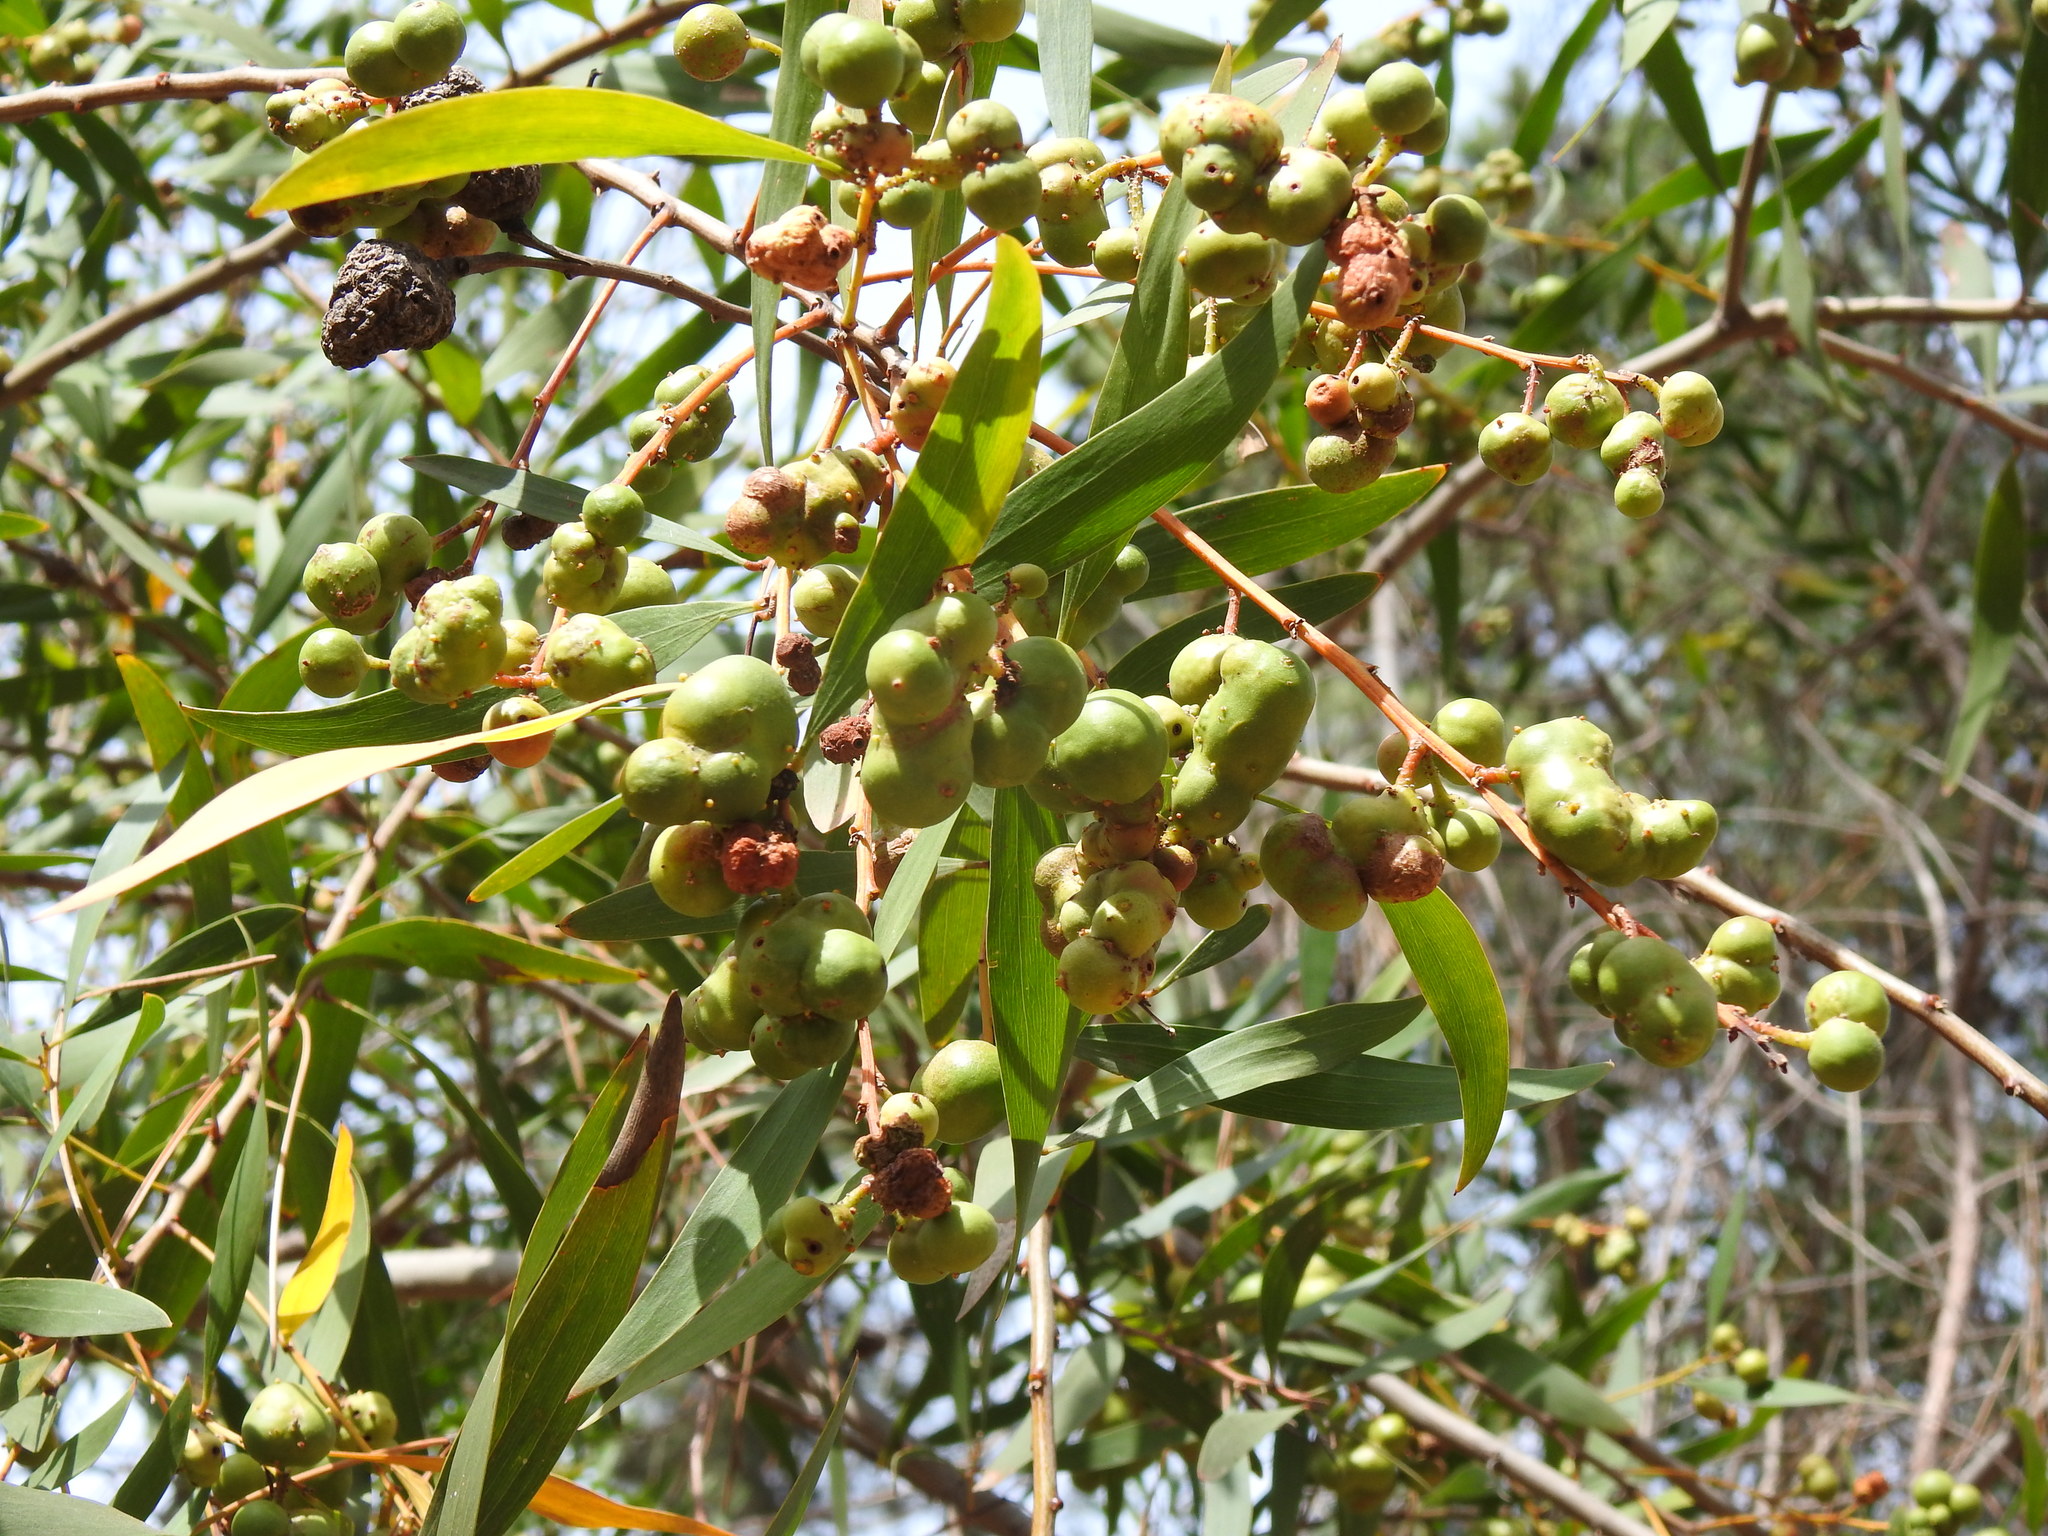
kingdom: Plantae
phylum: Tracheophyta
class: Magnoliopsida
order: Fabales
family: Fabaceae
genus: Acacia
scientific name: Acacia longifolia
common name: Sydney golden wattle
